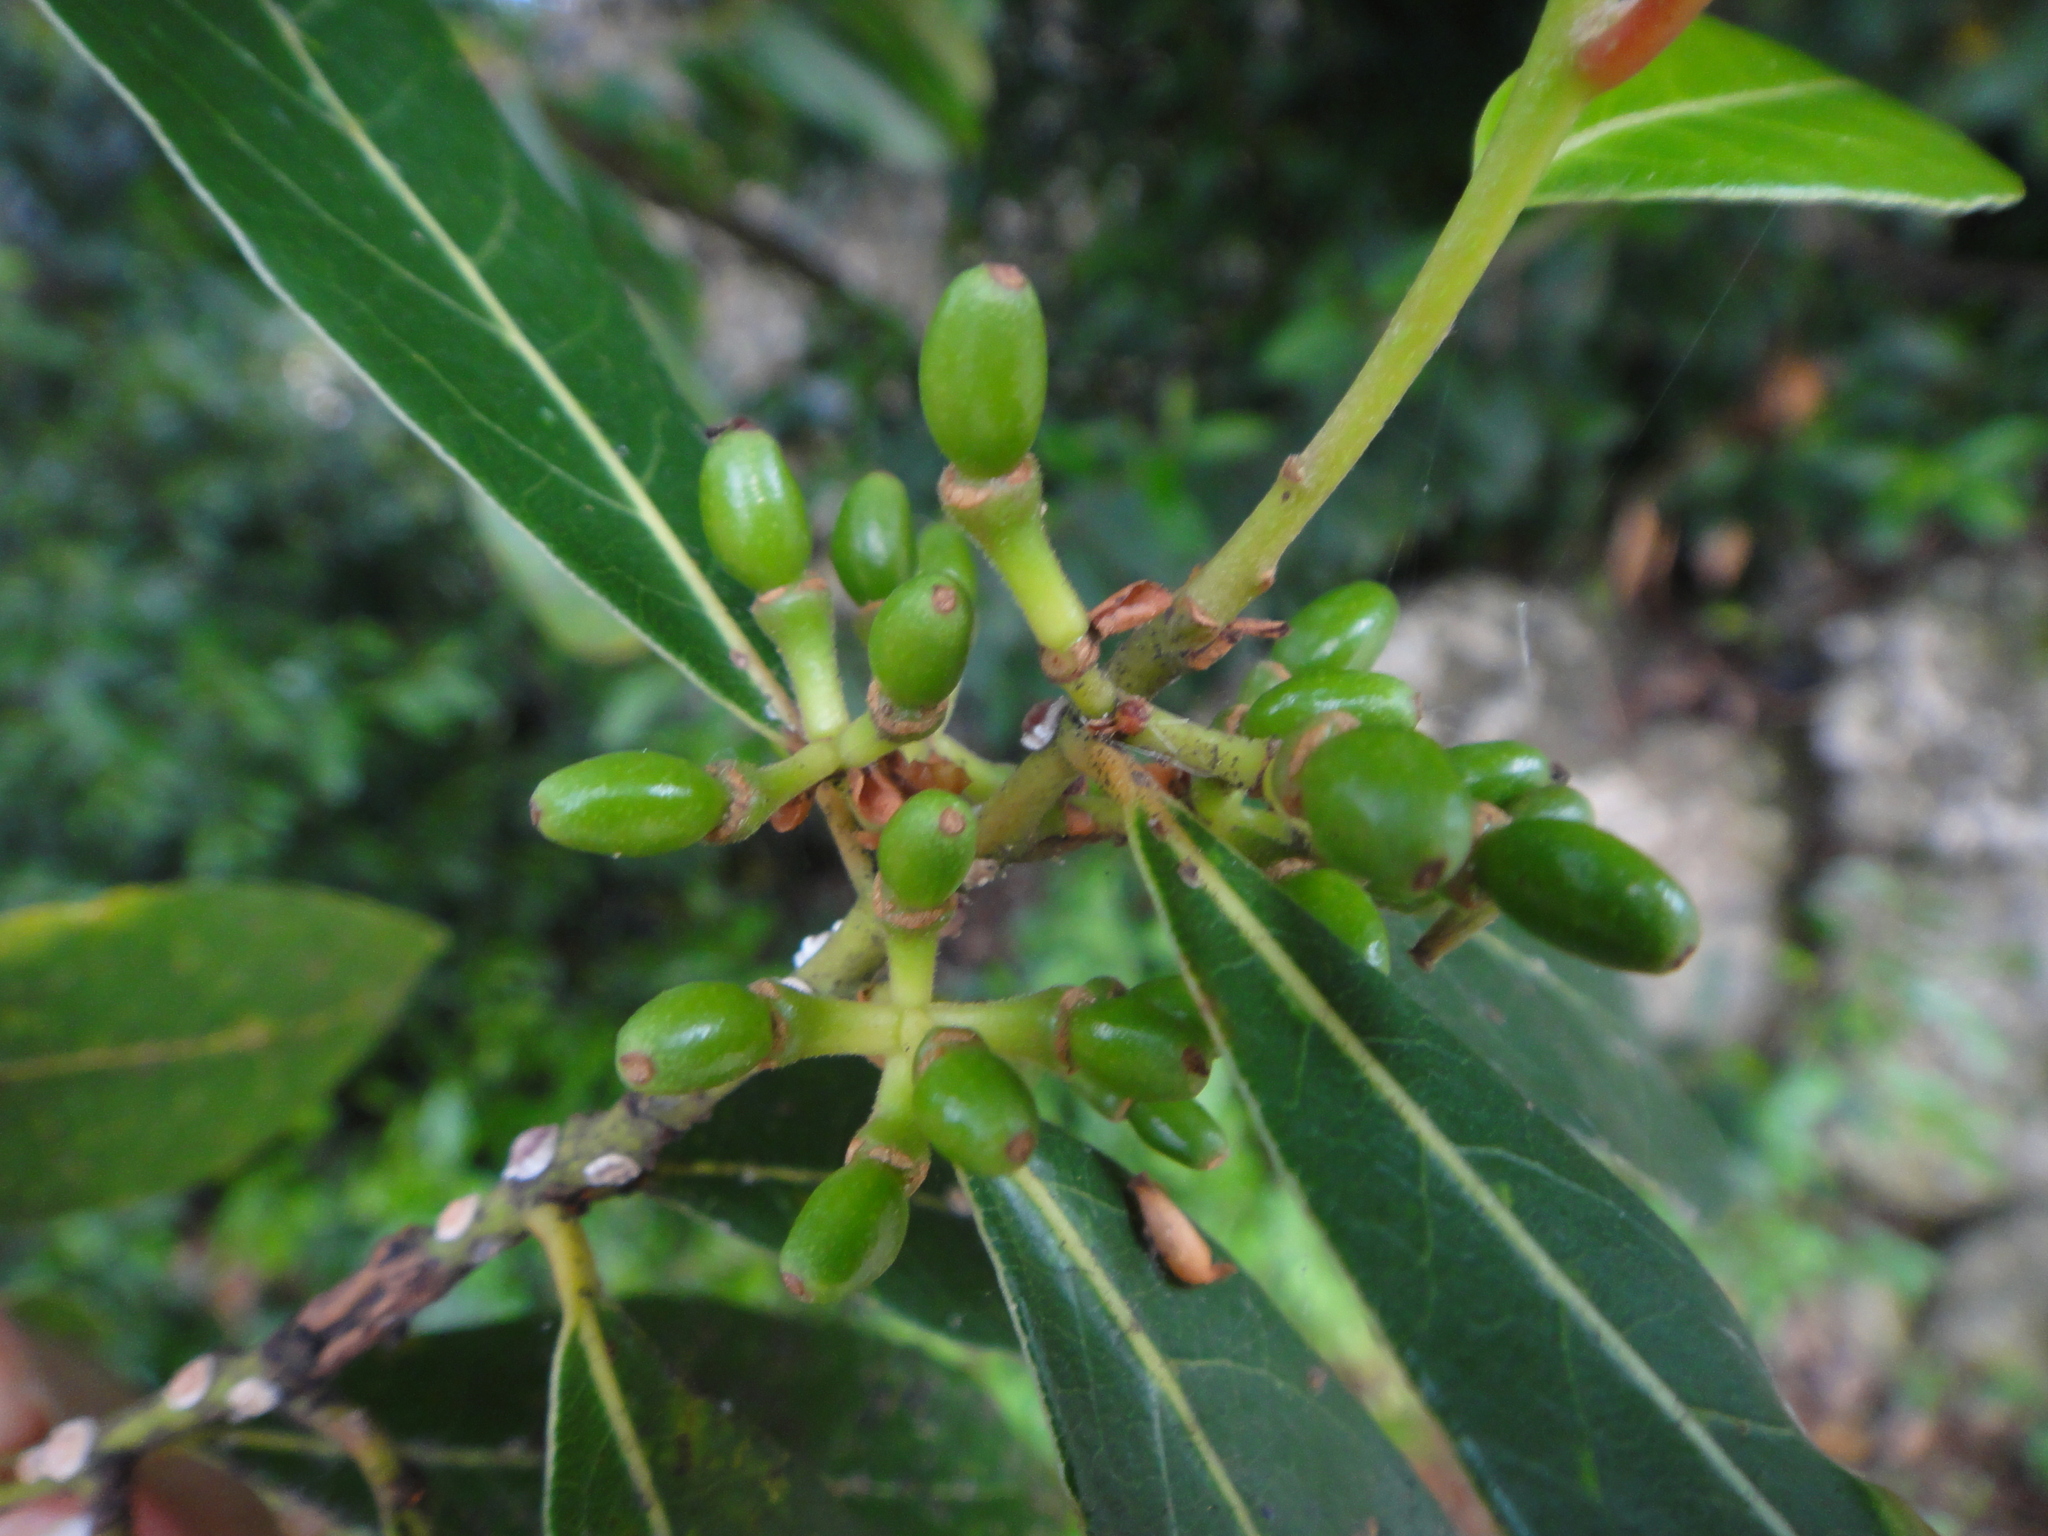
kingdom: Plantae
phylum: Tracheophyta
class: Magnoliopsida
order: Laurales
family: Lauraceae
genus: Laurus
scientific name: Laurus nobilis
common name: Bay
